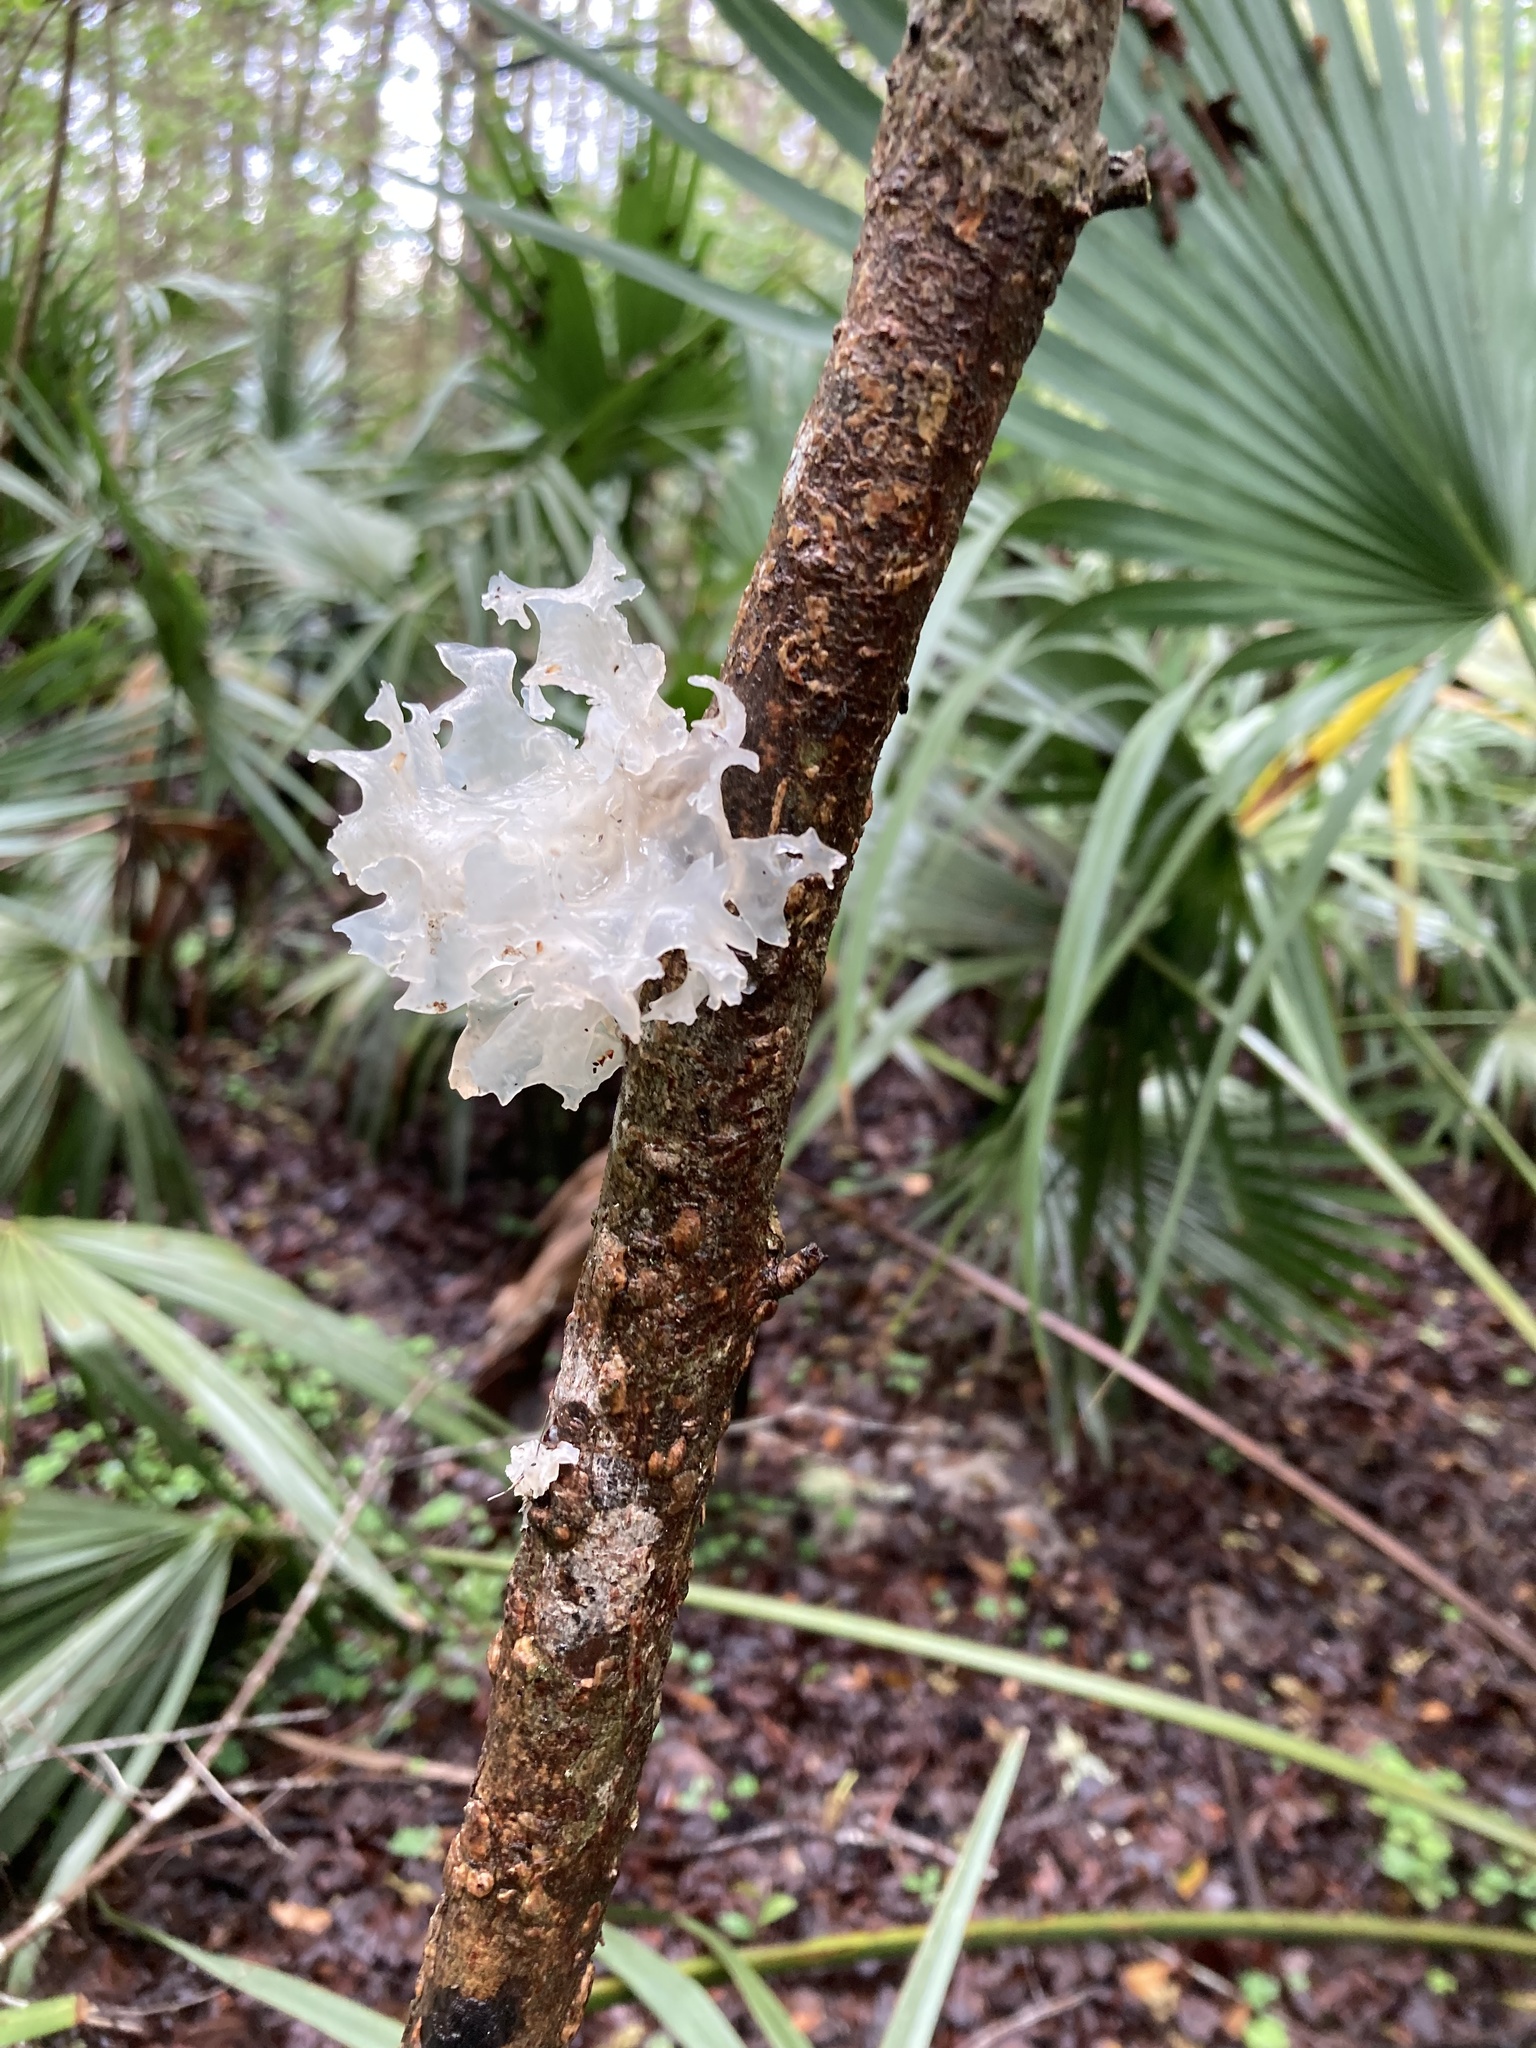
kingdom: Fungi
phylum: Basidiomycota
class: Tremellomycetes
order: Tremellales
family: Tremellaceae
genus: Tremella
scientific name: Tremella fuciformis
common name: Snow fungus
